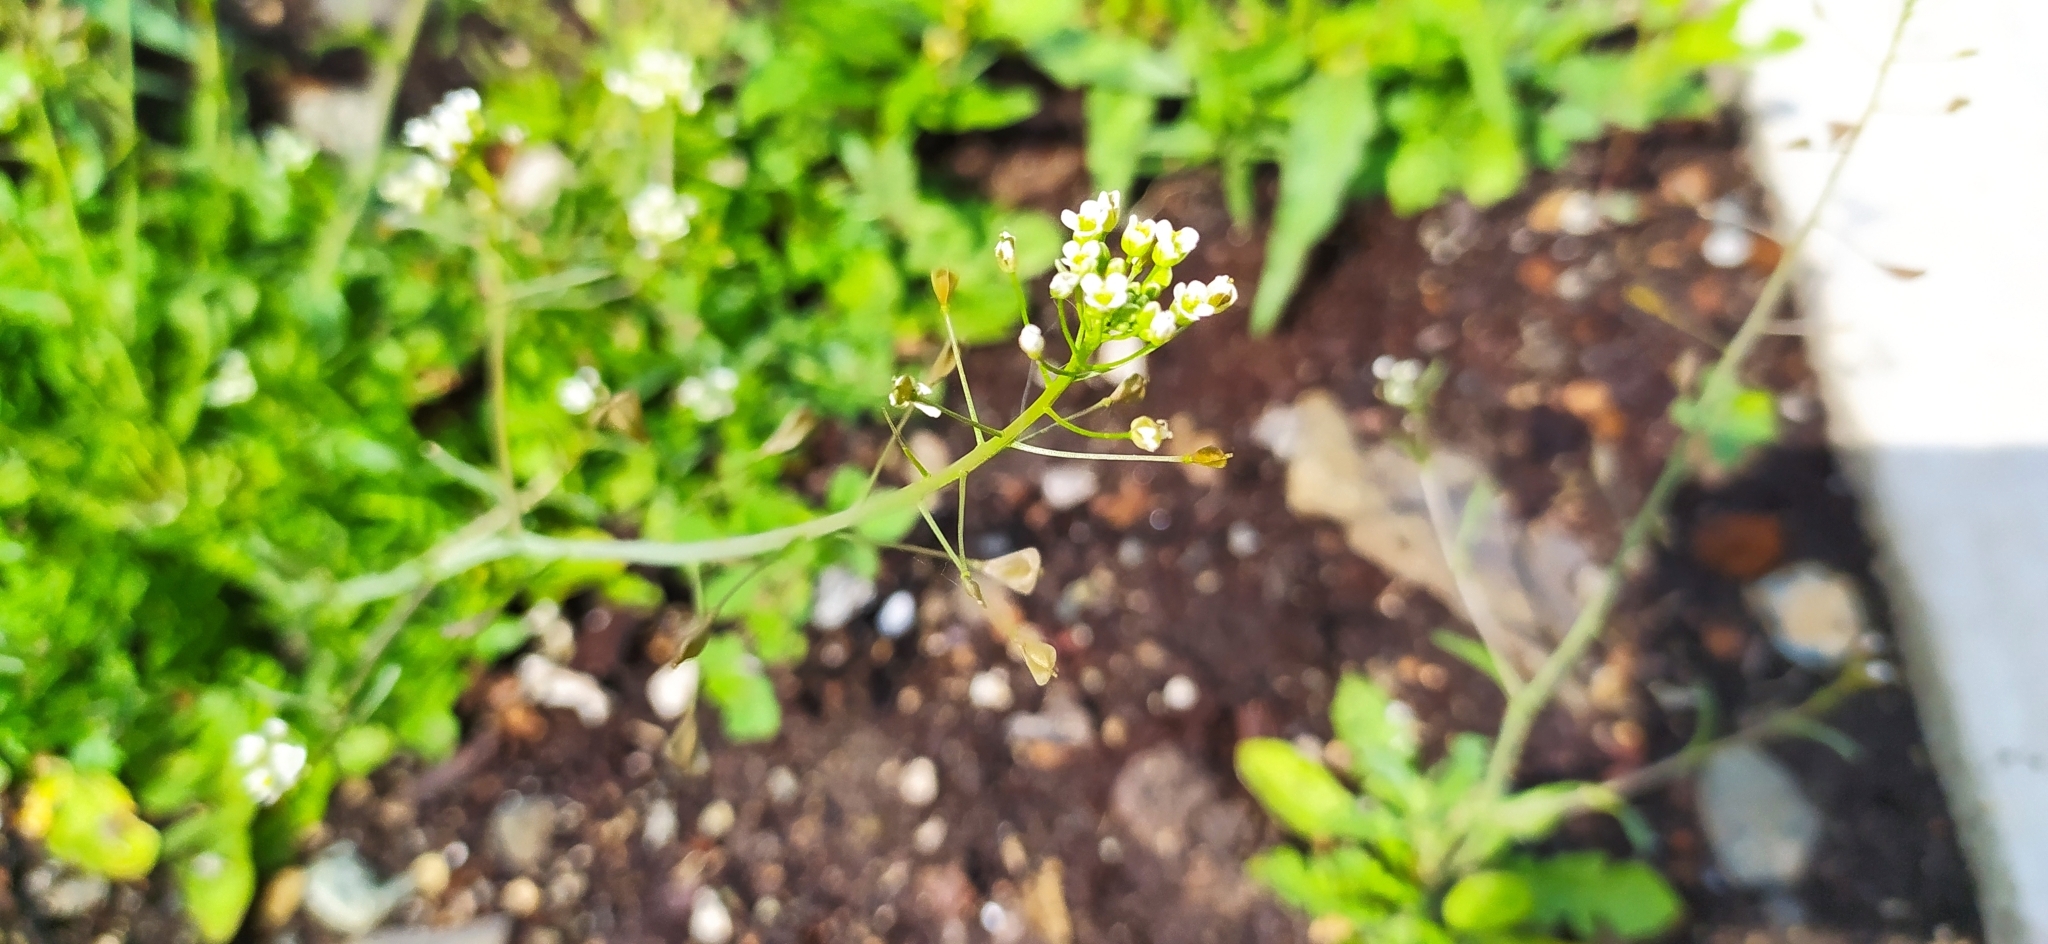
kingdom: Plantae
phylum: Tracheophyta
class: Magnoliopsida
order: Brassicales
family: Brassicaceae
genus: Capsella
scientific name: Capsella bursa-pastoris
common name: Shepherd's purse
